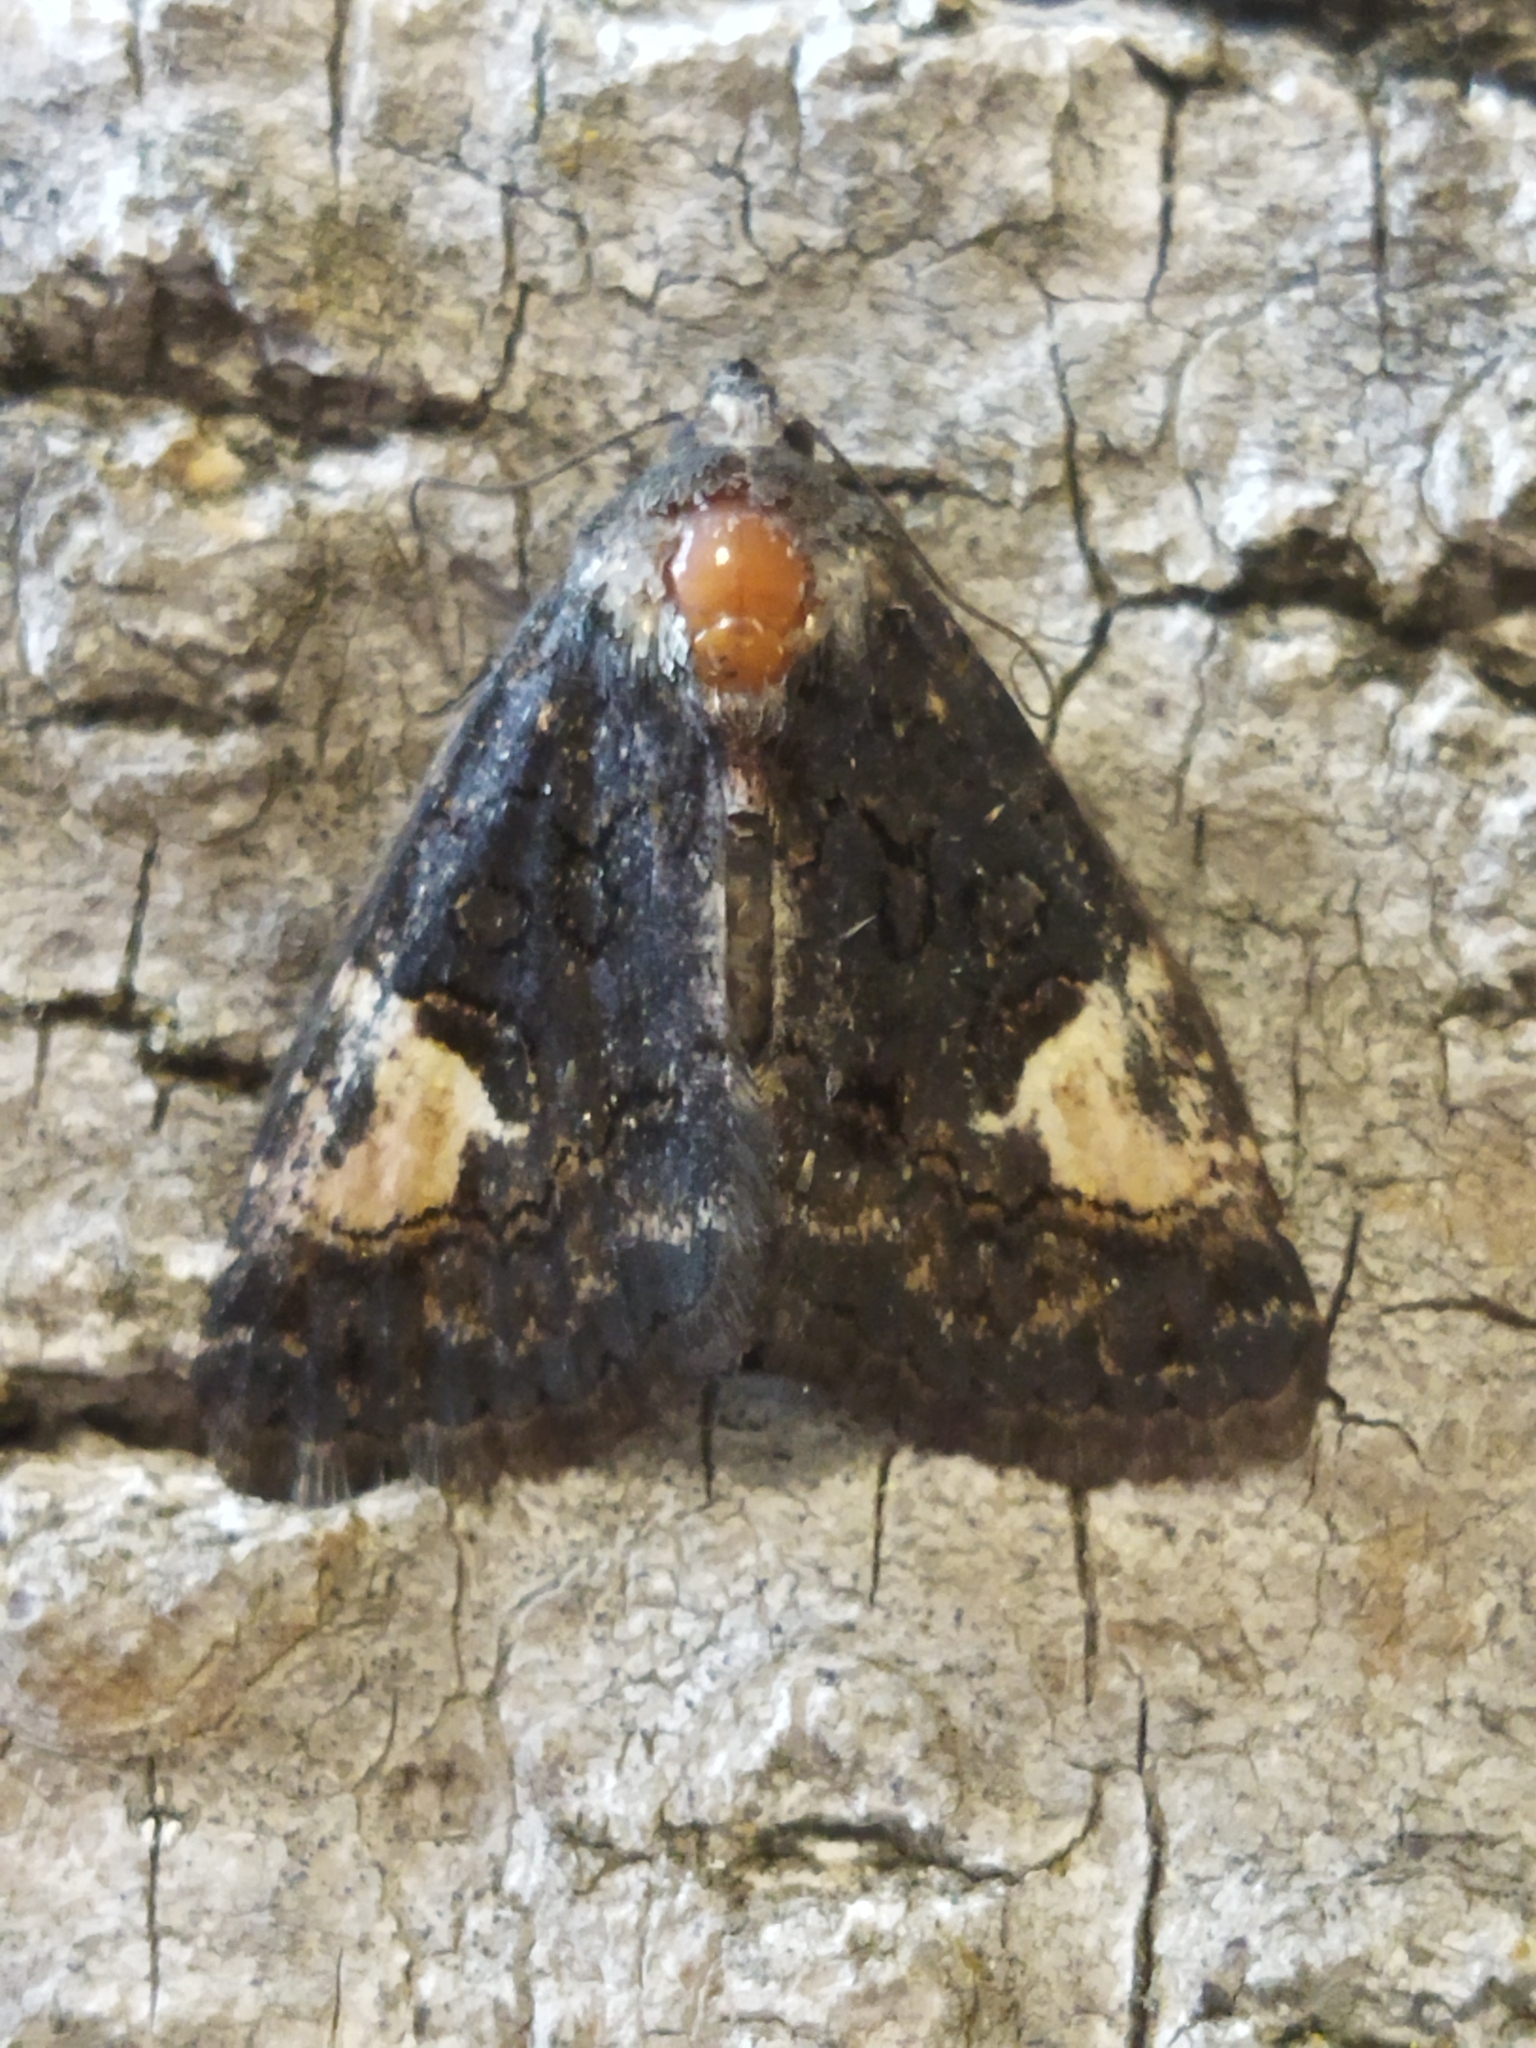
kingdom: Animalia
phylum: Arthropoda
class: Insecta
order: Lepidoptera
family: Noctuidae
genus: Aedia
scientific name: Aedia funesta
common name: The druid
